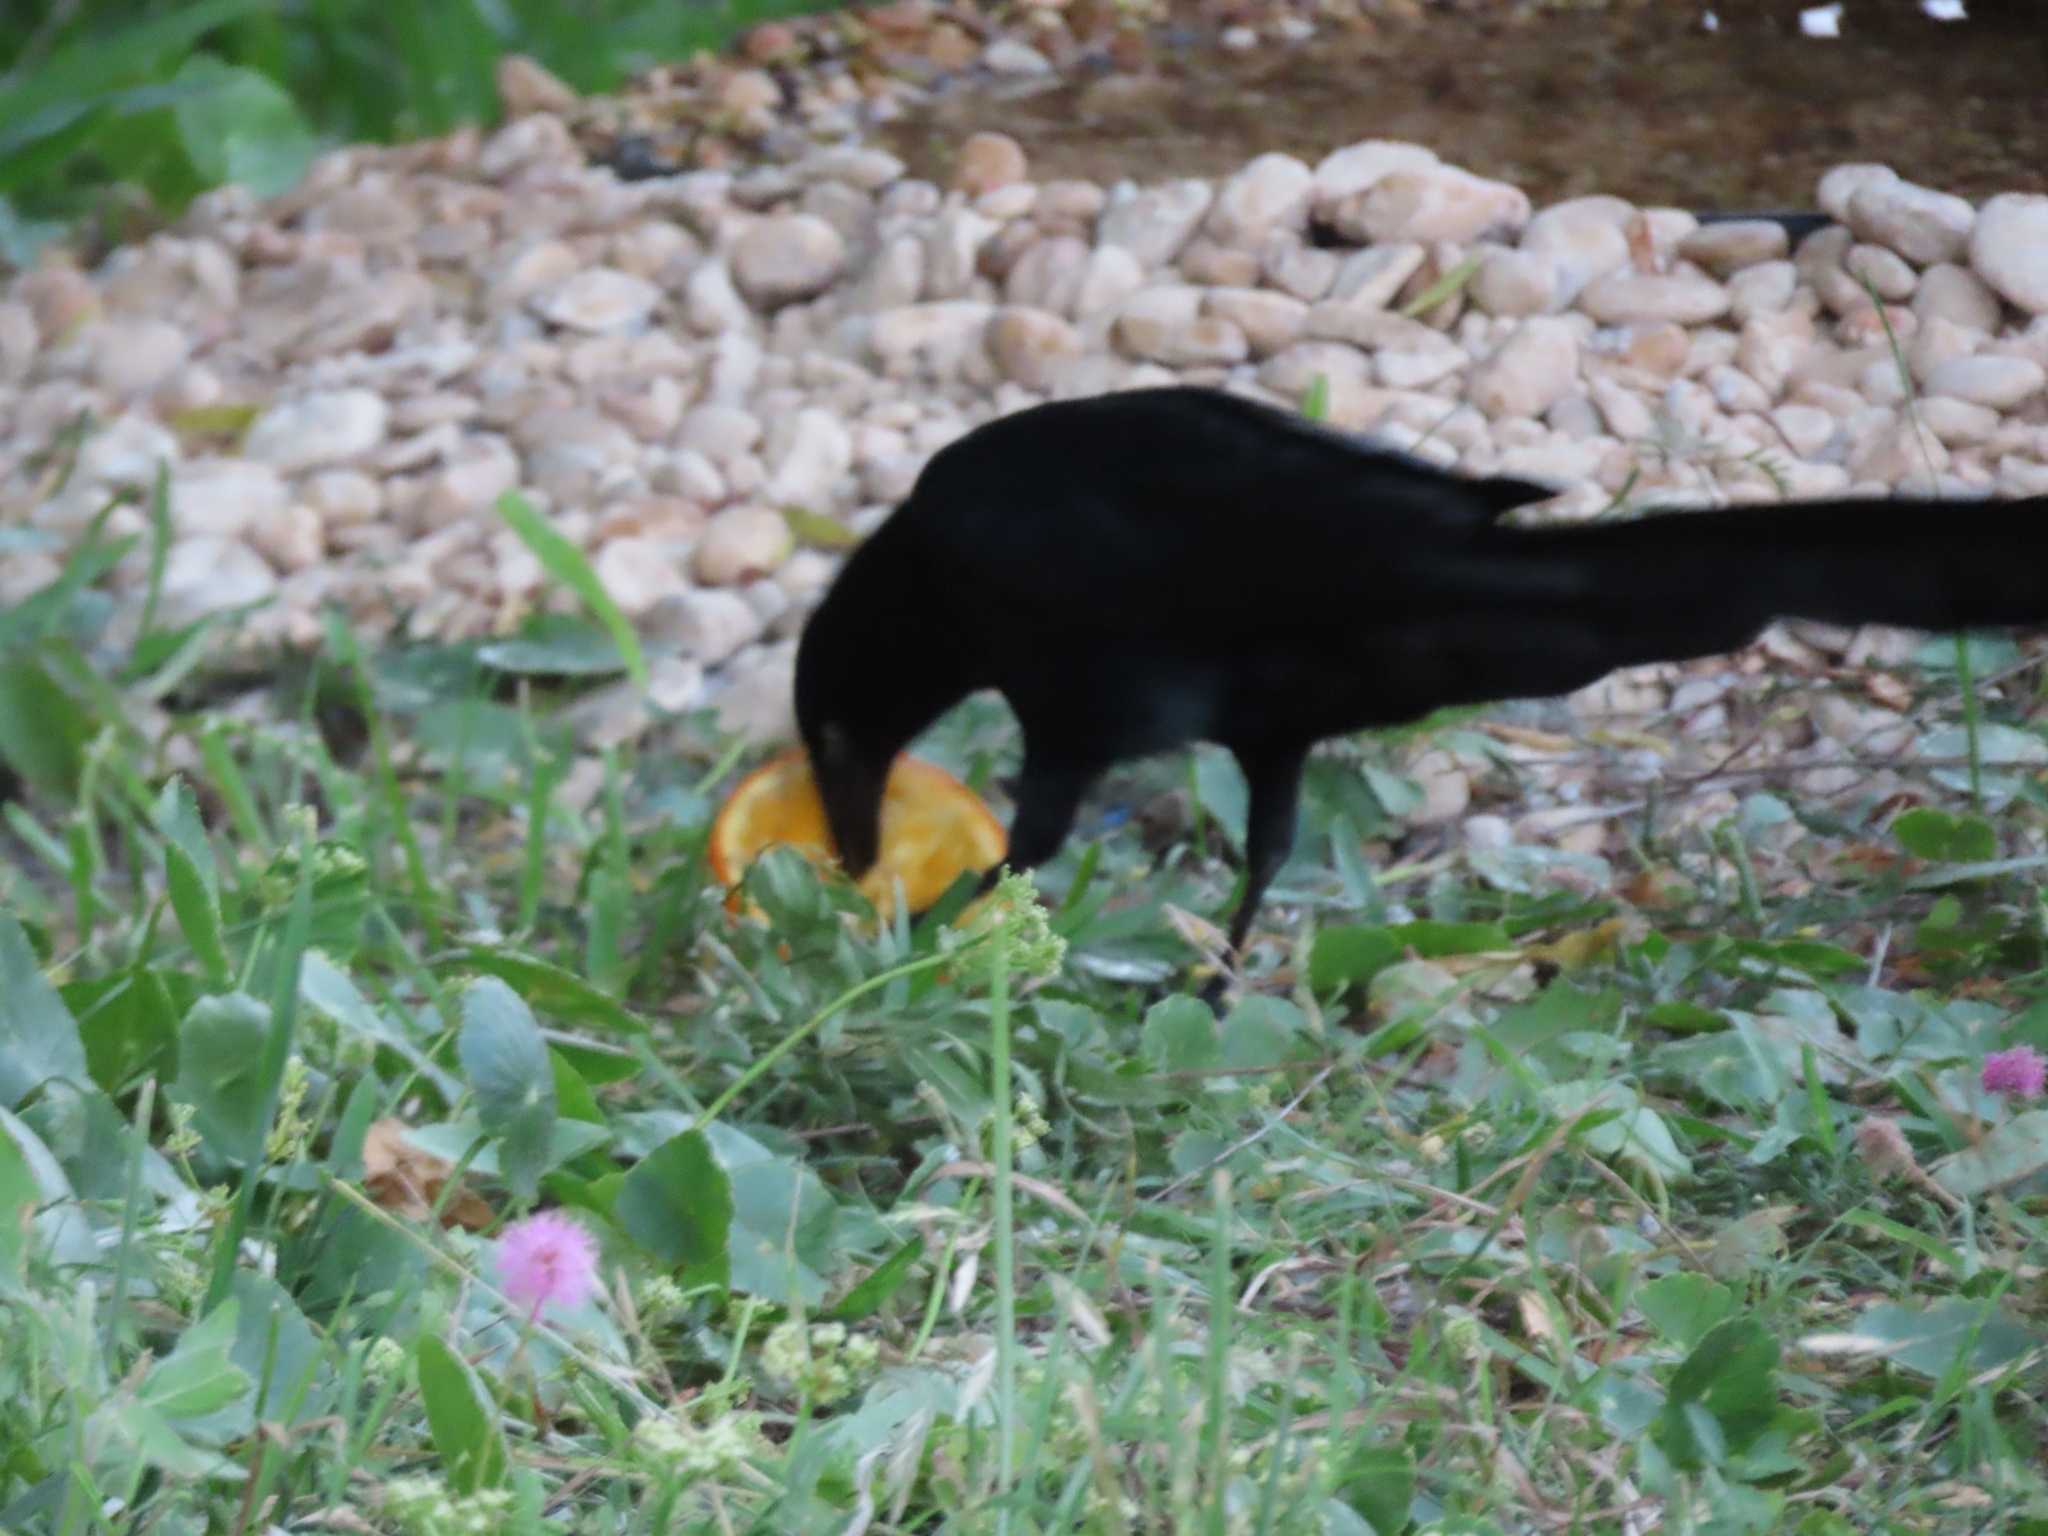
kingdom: Animalia
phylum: Chordata
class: Aves
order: Passeriformes
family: Icteridae
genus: Quiscalus
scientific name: Quiscalus mexicanus
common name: Great-tailed grackle
